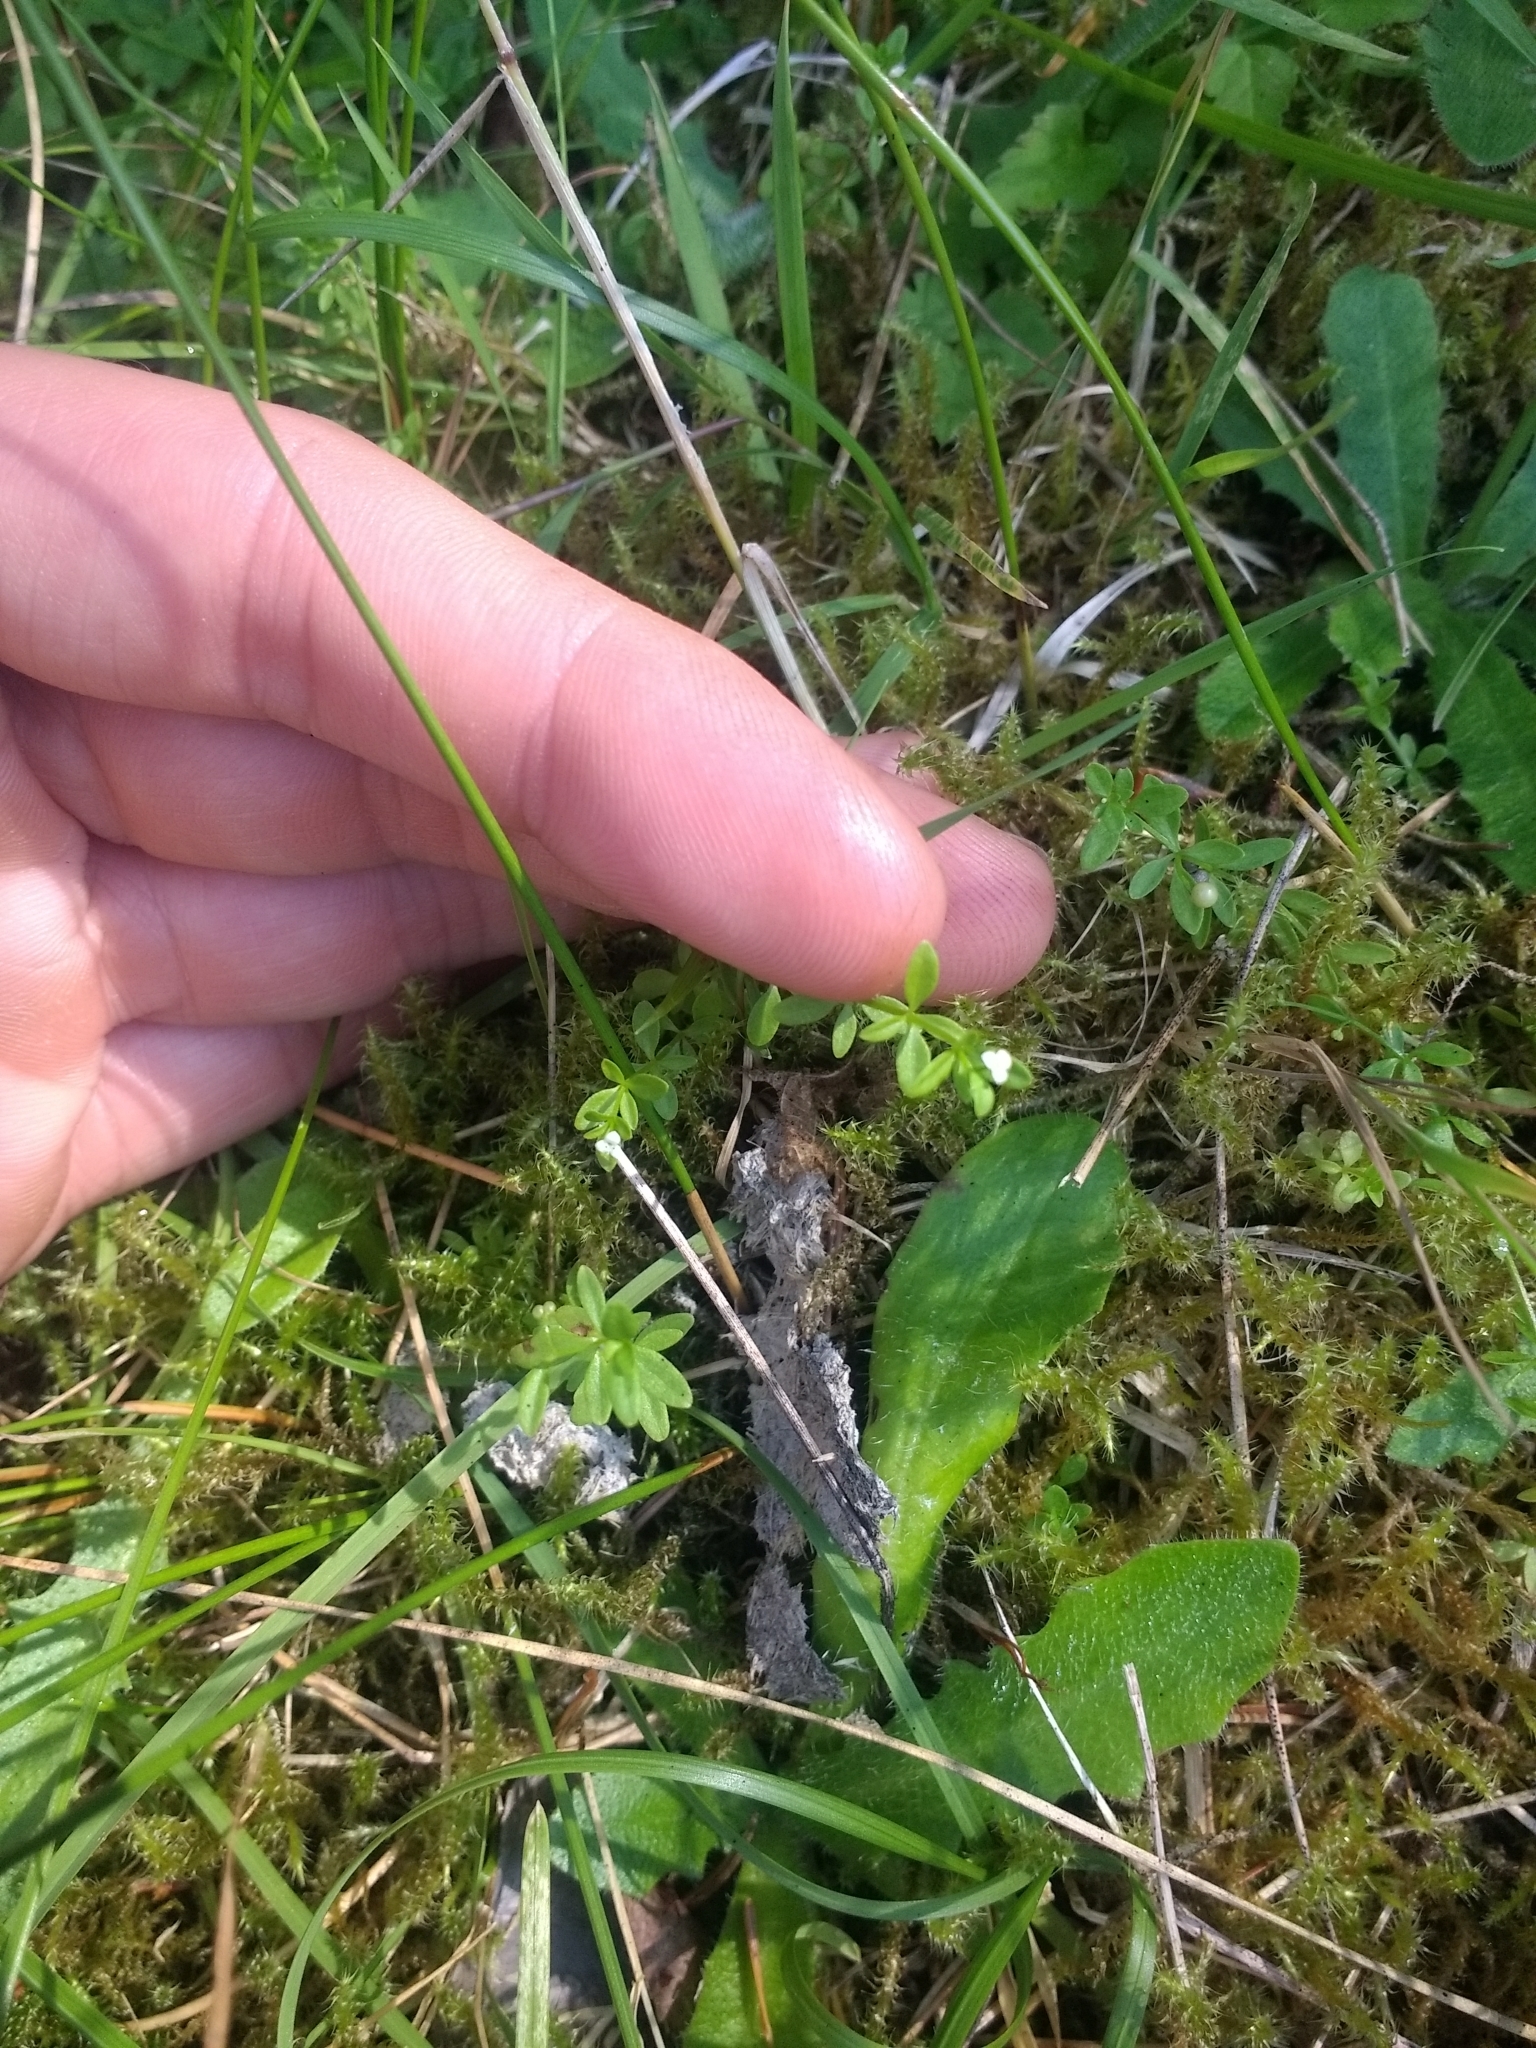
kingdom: Plantae
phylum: Tracheophyta
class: Magnoliopsida
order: Gentianales
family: Rubiaceae
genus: Galium
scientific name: Galium trifidum
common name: Small bedstraw
